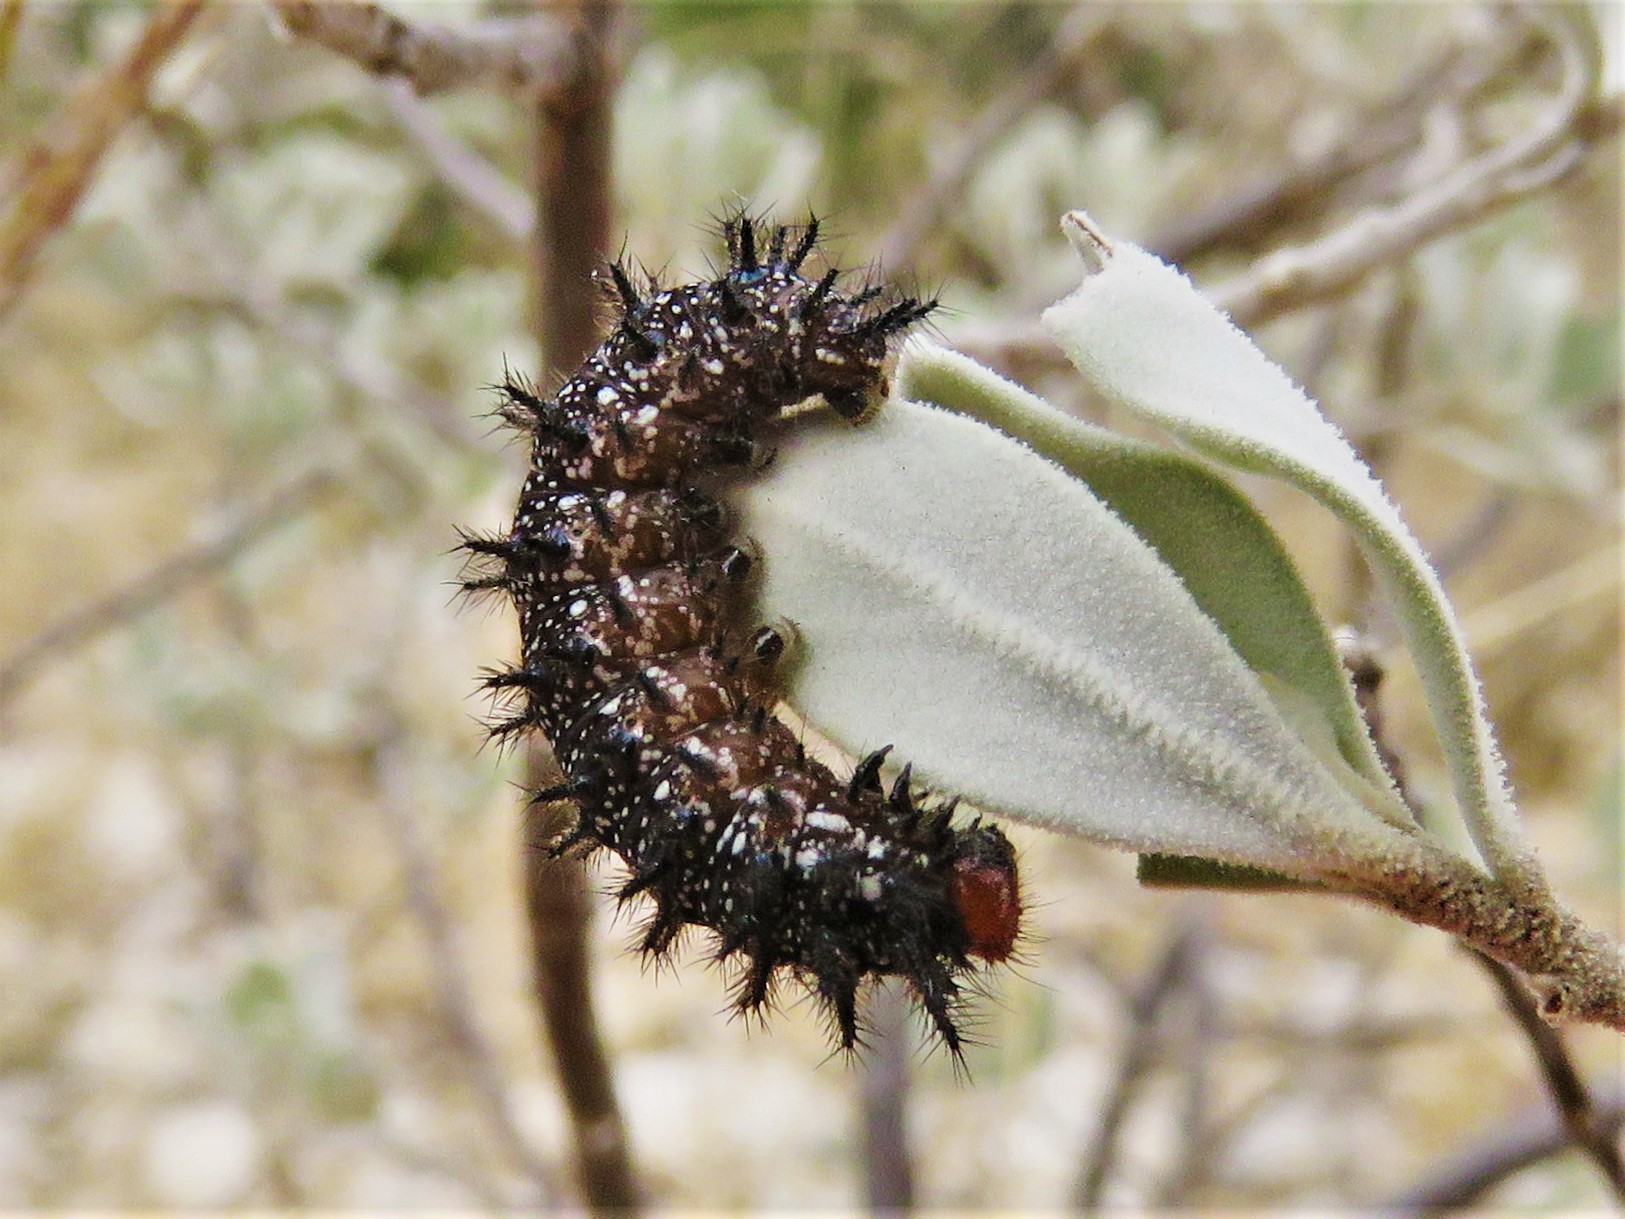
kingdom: Animalia
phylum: Arthropoda
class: Insecta
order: Lepidoptera
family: Nymphalidae
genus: Thessalia
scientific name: Thessalia theona
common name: Nymphalid moth
